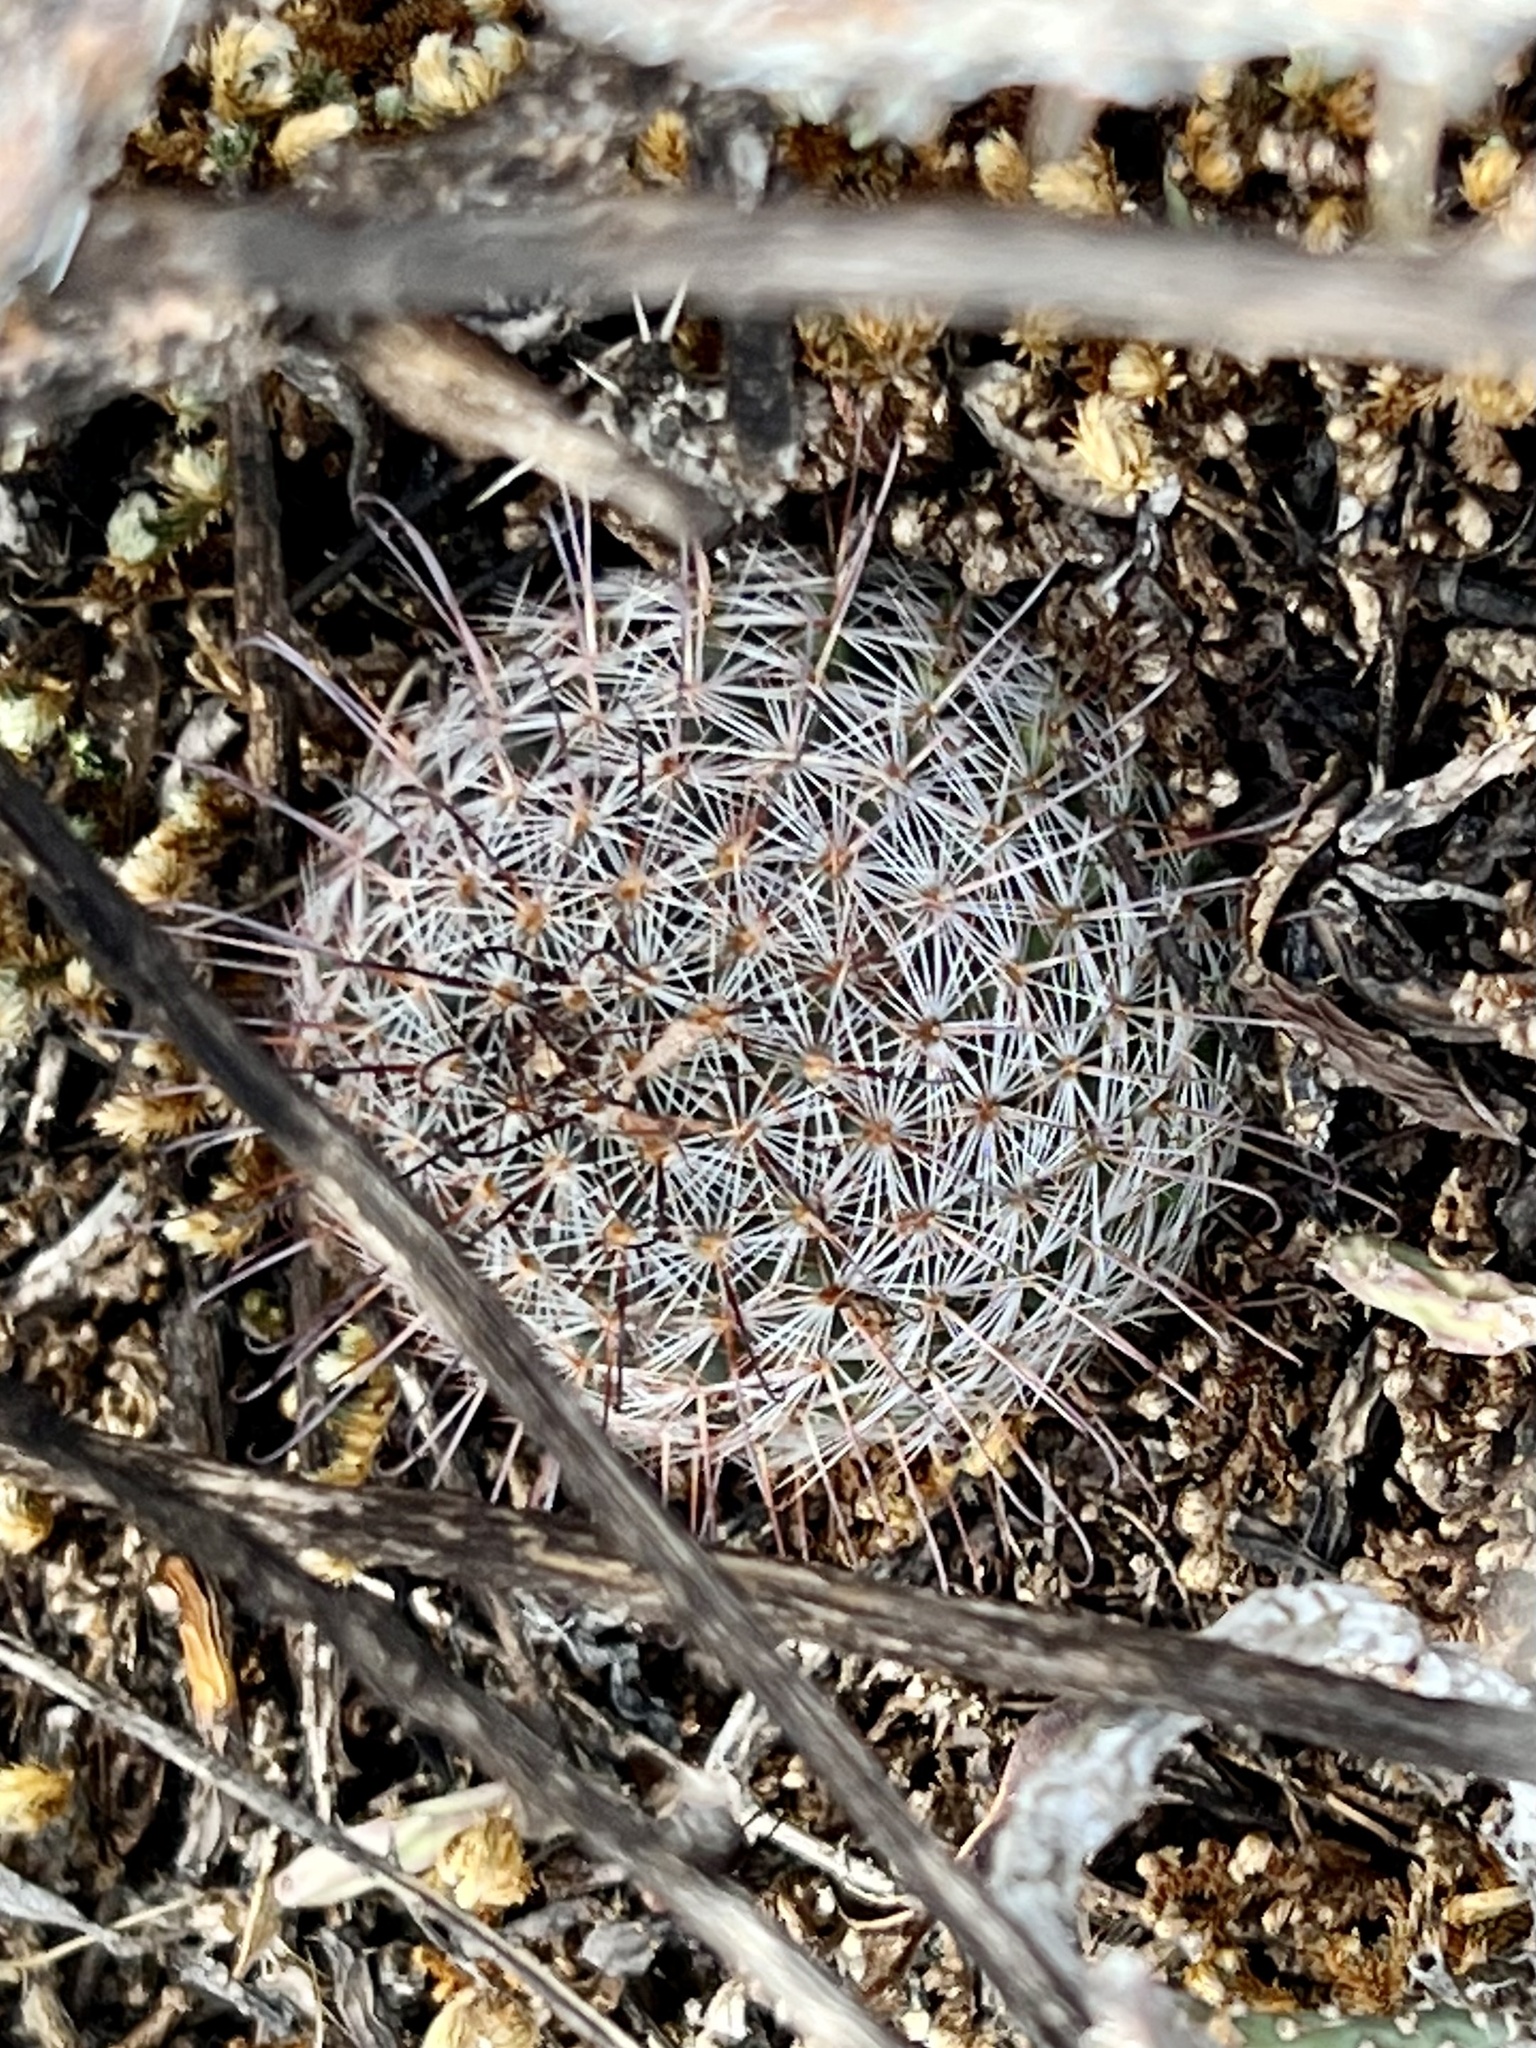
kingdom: Plantae
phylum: Tracheophyta
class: Magnoliopsida
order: Caryophyllales
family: Cactaceae
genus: Cochemiea
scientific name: Cochemiea grahamii
